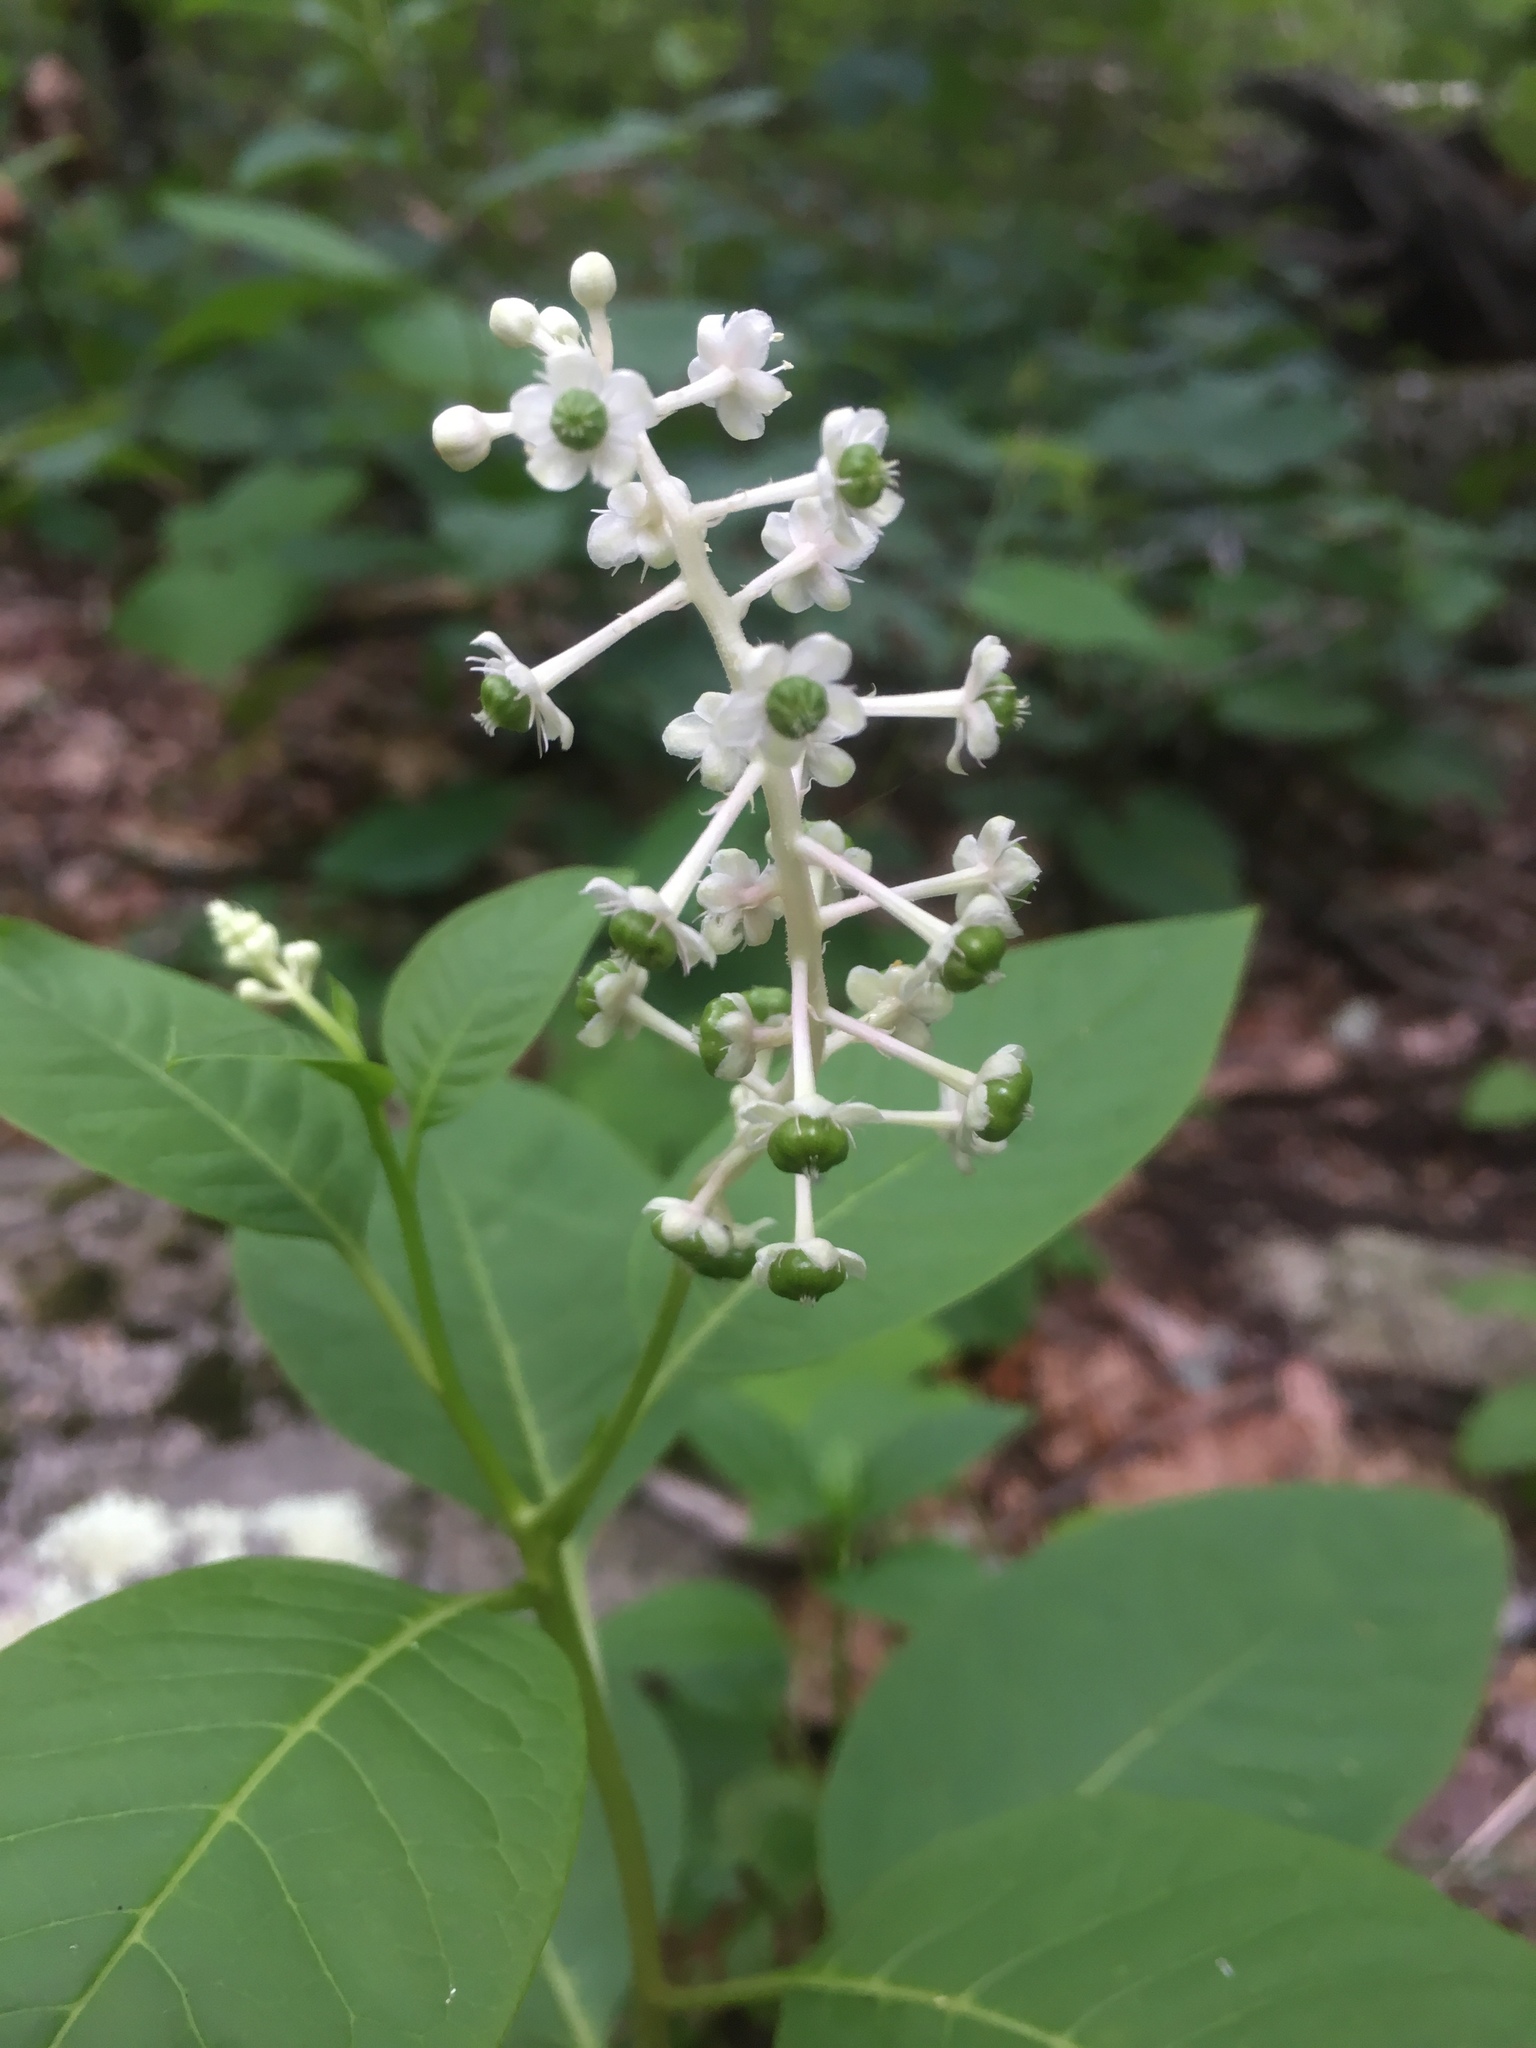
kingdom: Plantae
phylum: Tracheophyta
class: Magnoliopsida
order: Caryophyllales
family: Phytolaccaceae
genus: Phytolacca
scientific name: Phytolacca americana
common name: American pokeweed
